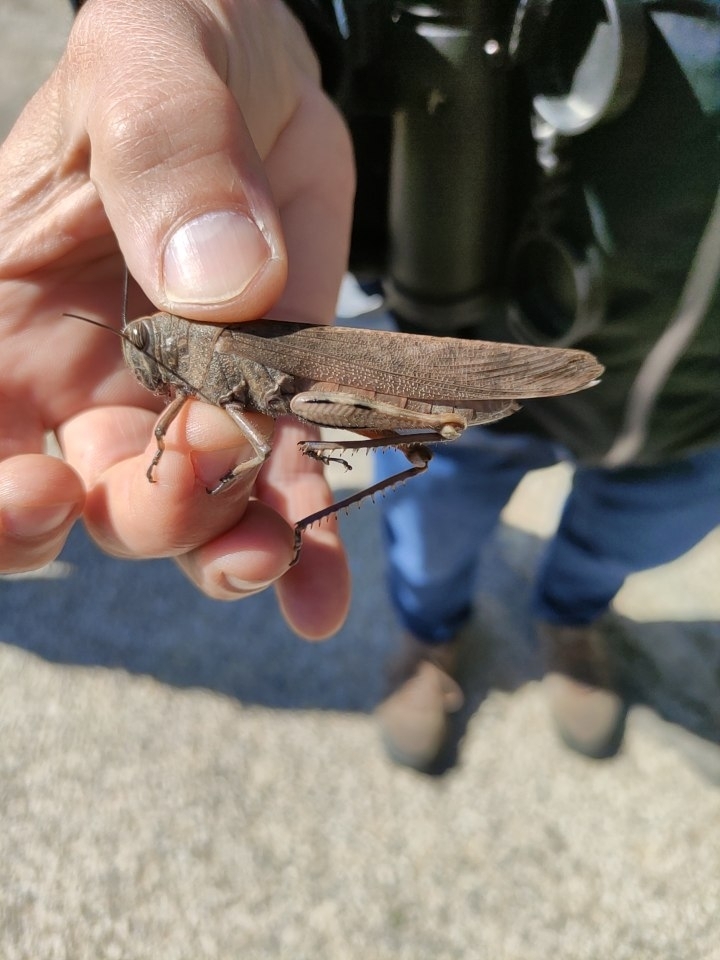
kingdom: Animalia
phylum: Arthropoda
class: Insecta
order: Orthoptera
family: Acrididae
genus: Anacridium
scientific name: Anacridium aegyptium
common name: Egyptian grasshopper
